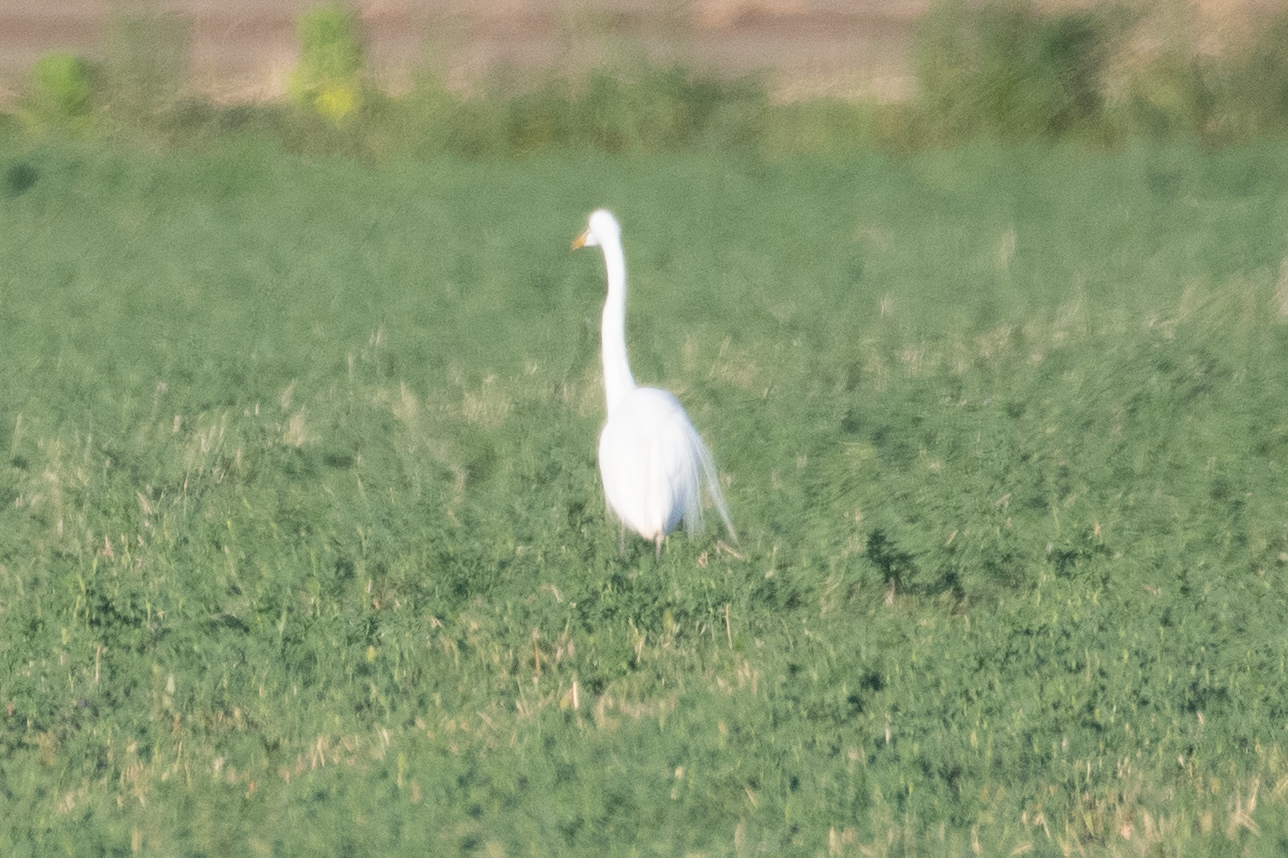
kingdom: Animalia
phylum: Chordata
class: Aves
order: Pelecaniformes
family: Ardeidae
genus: Ardea
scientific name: Ardea alba
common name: Great egret
